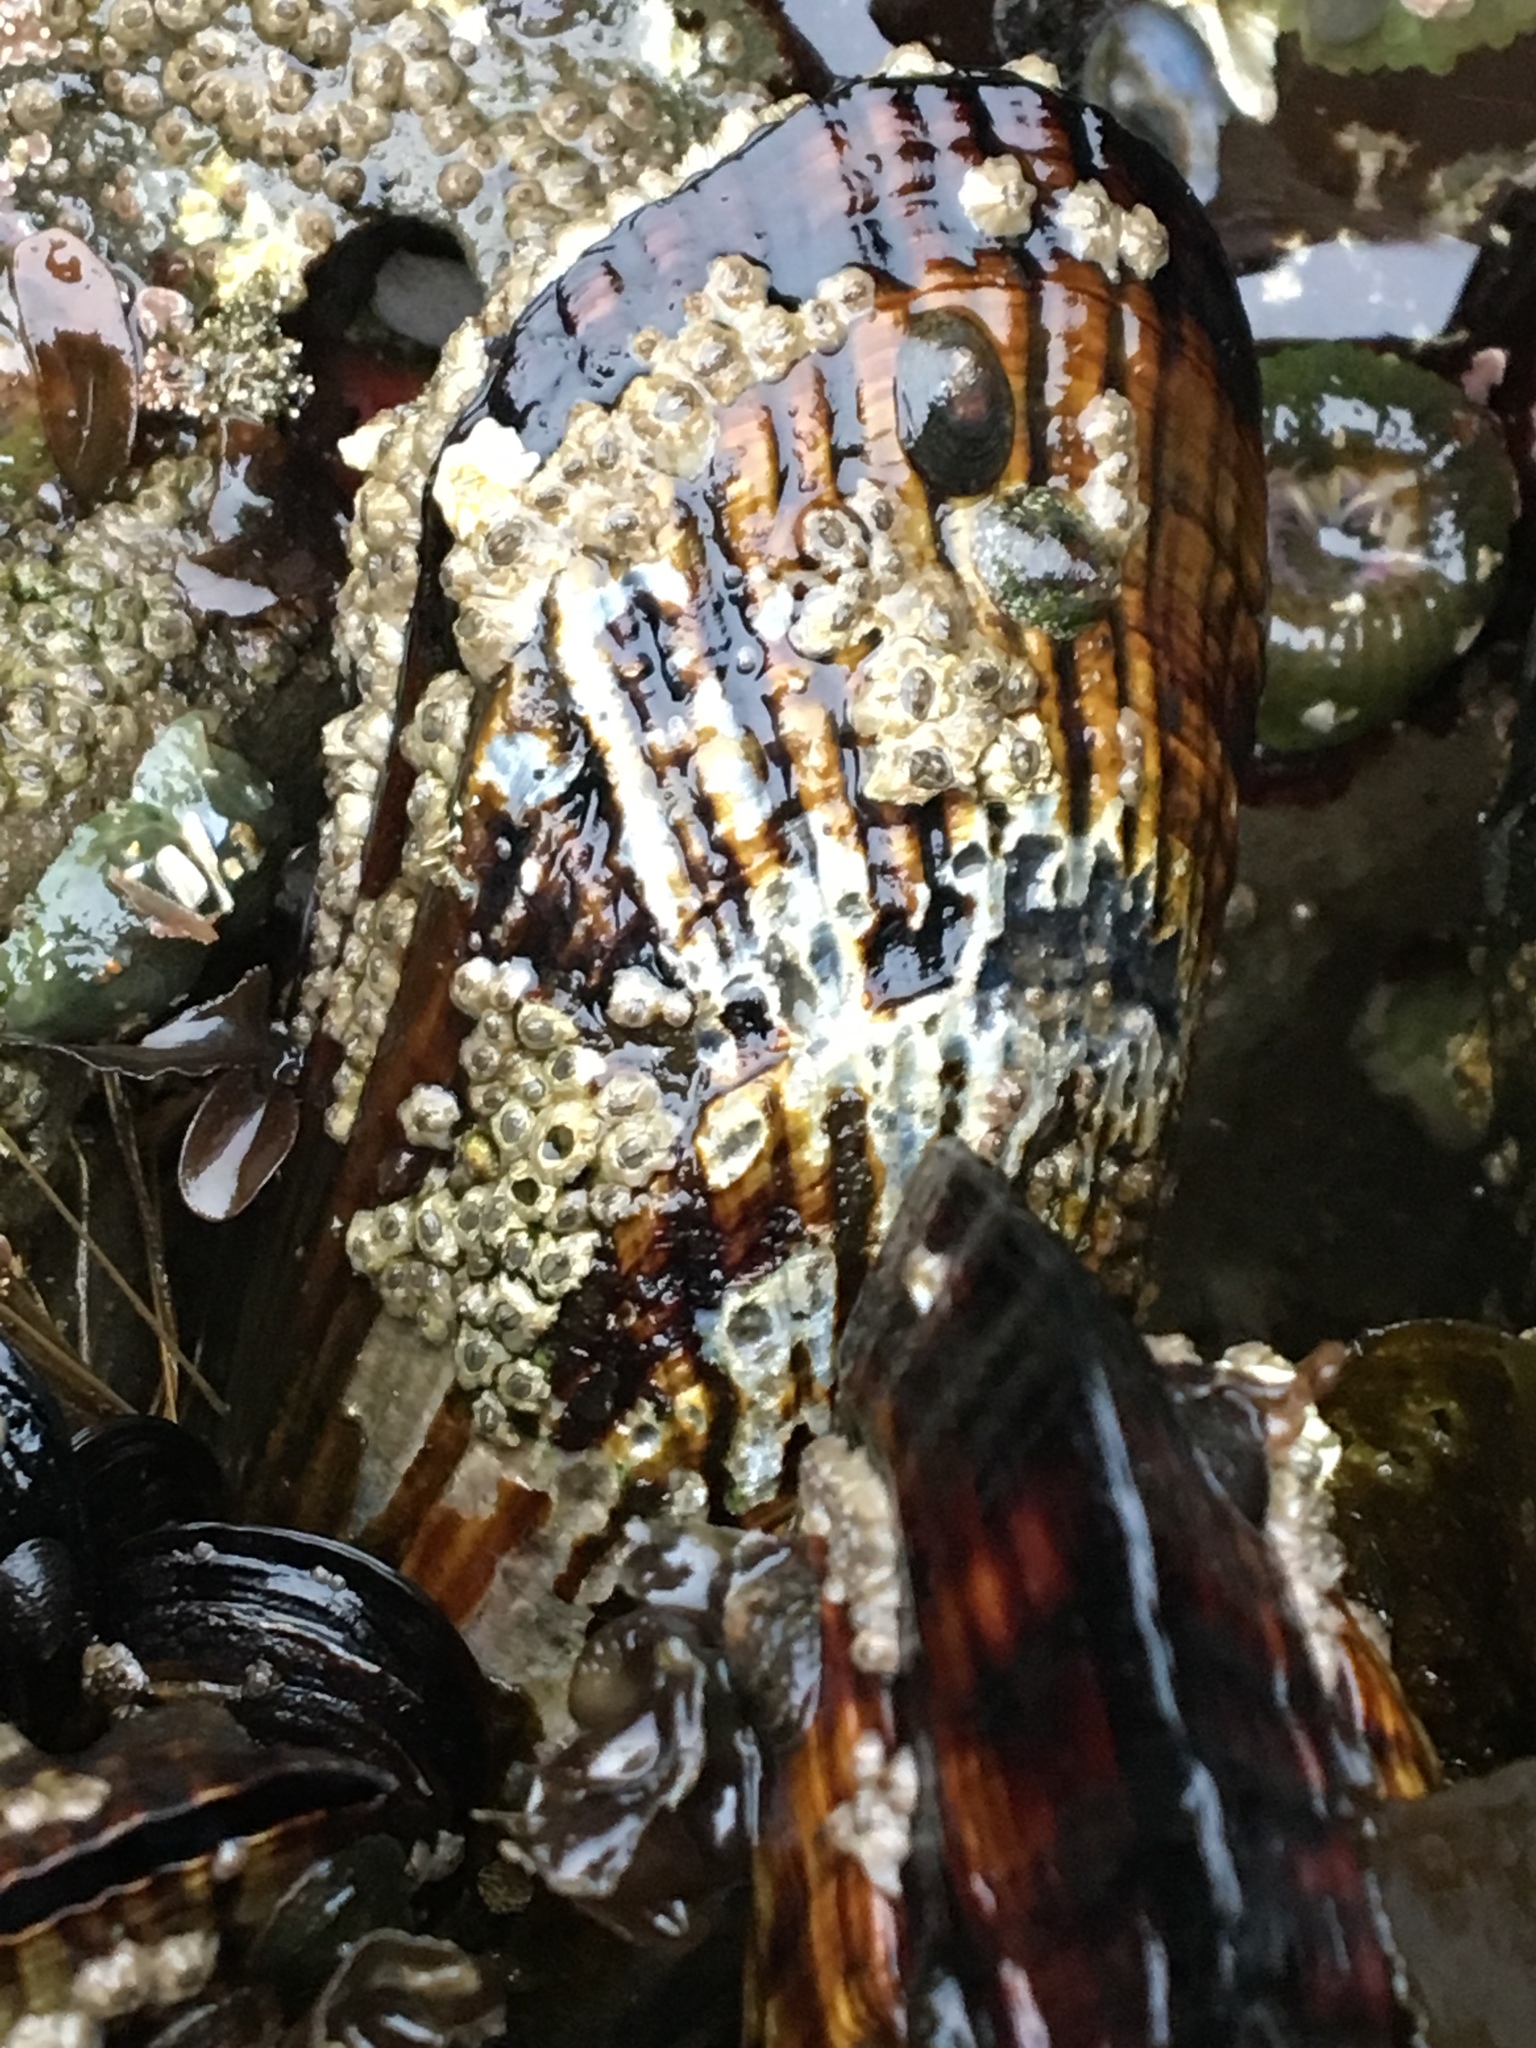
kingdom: Animalia
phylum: Mollusca
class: Bivalvia
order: Mytilida
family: Mytilidae
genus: Mytilus
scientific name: Mytilus californianus
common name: California mussel
